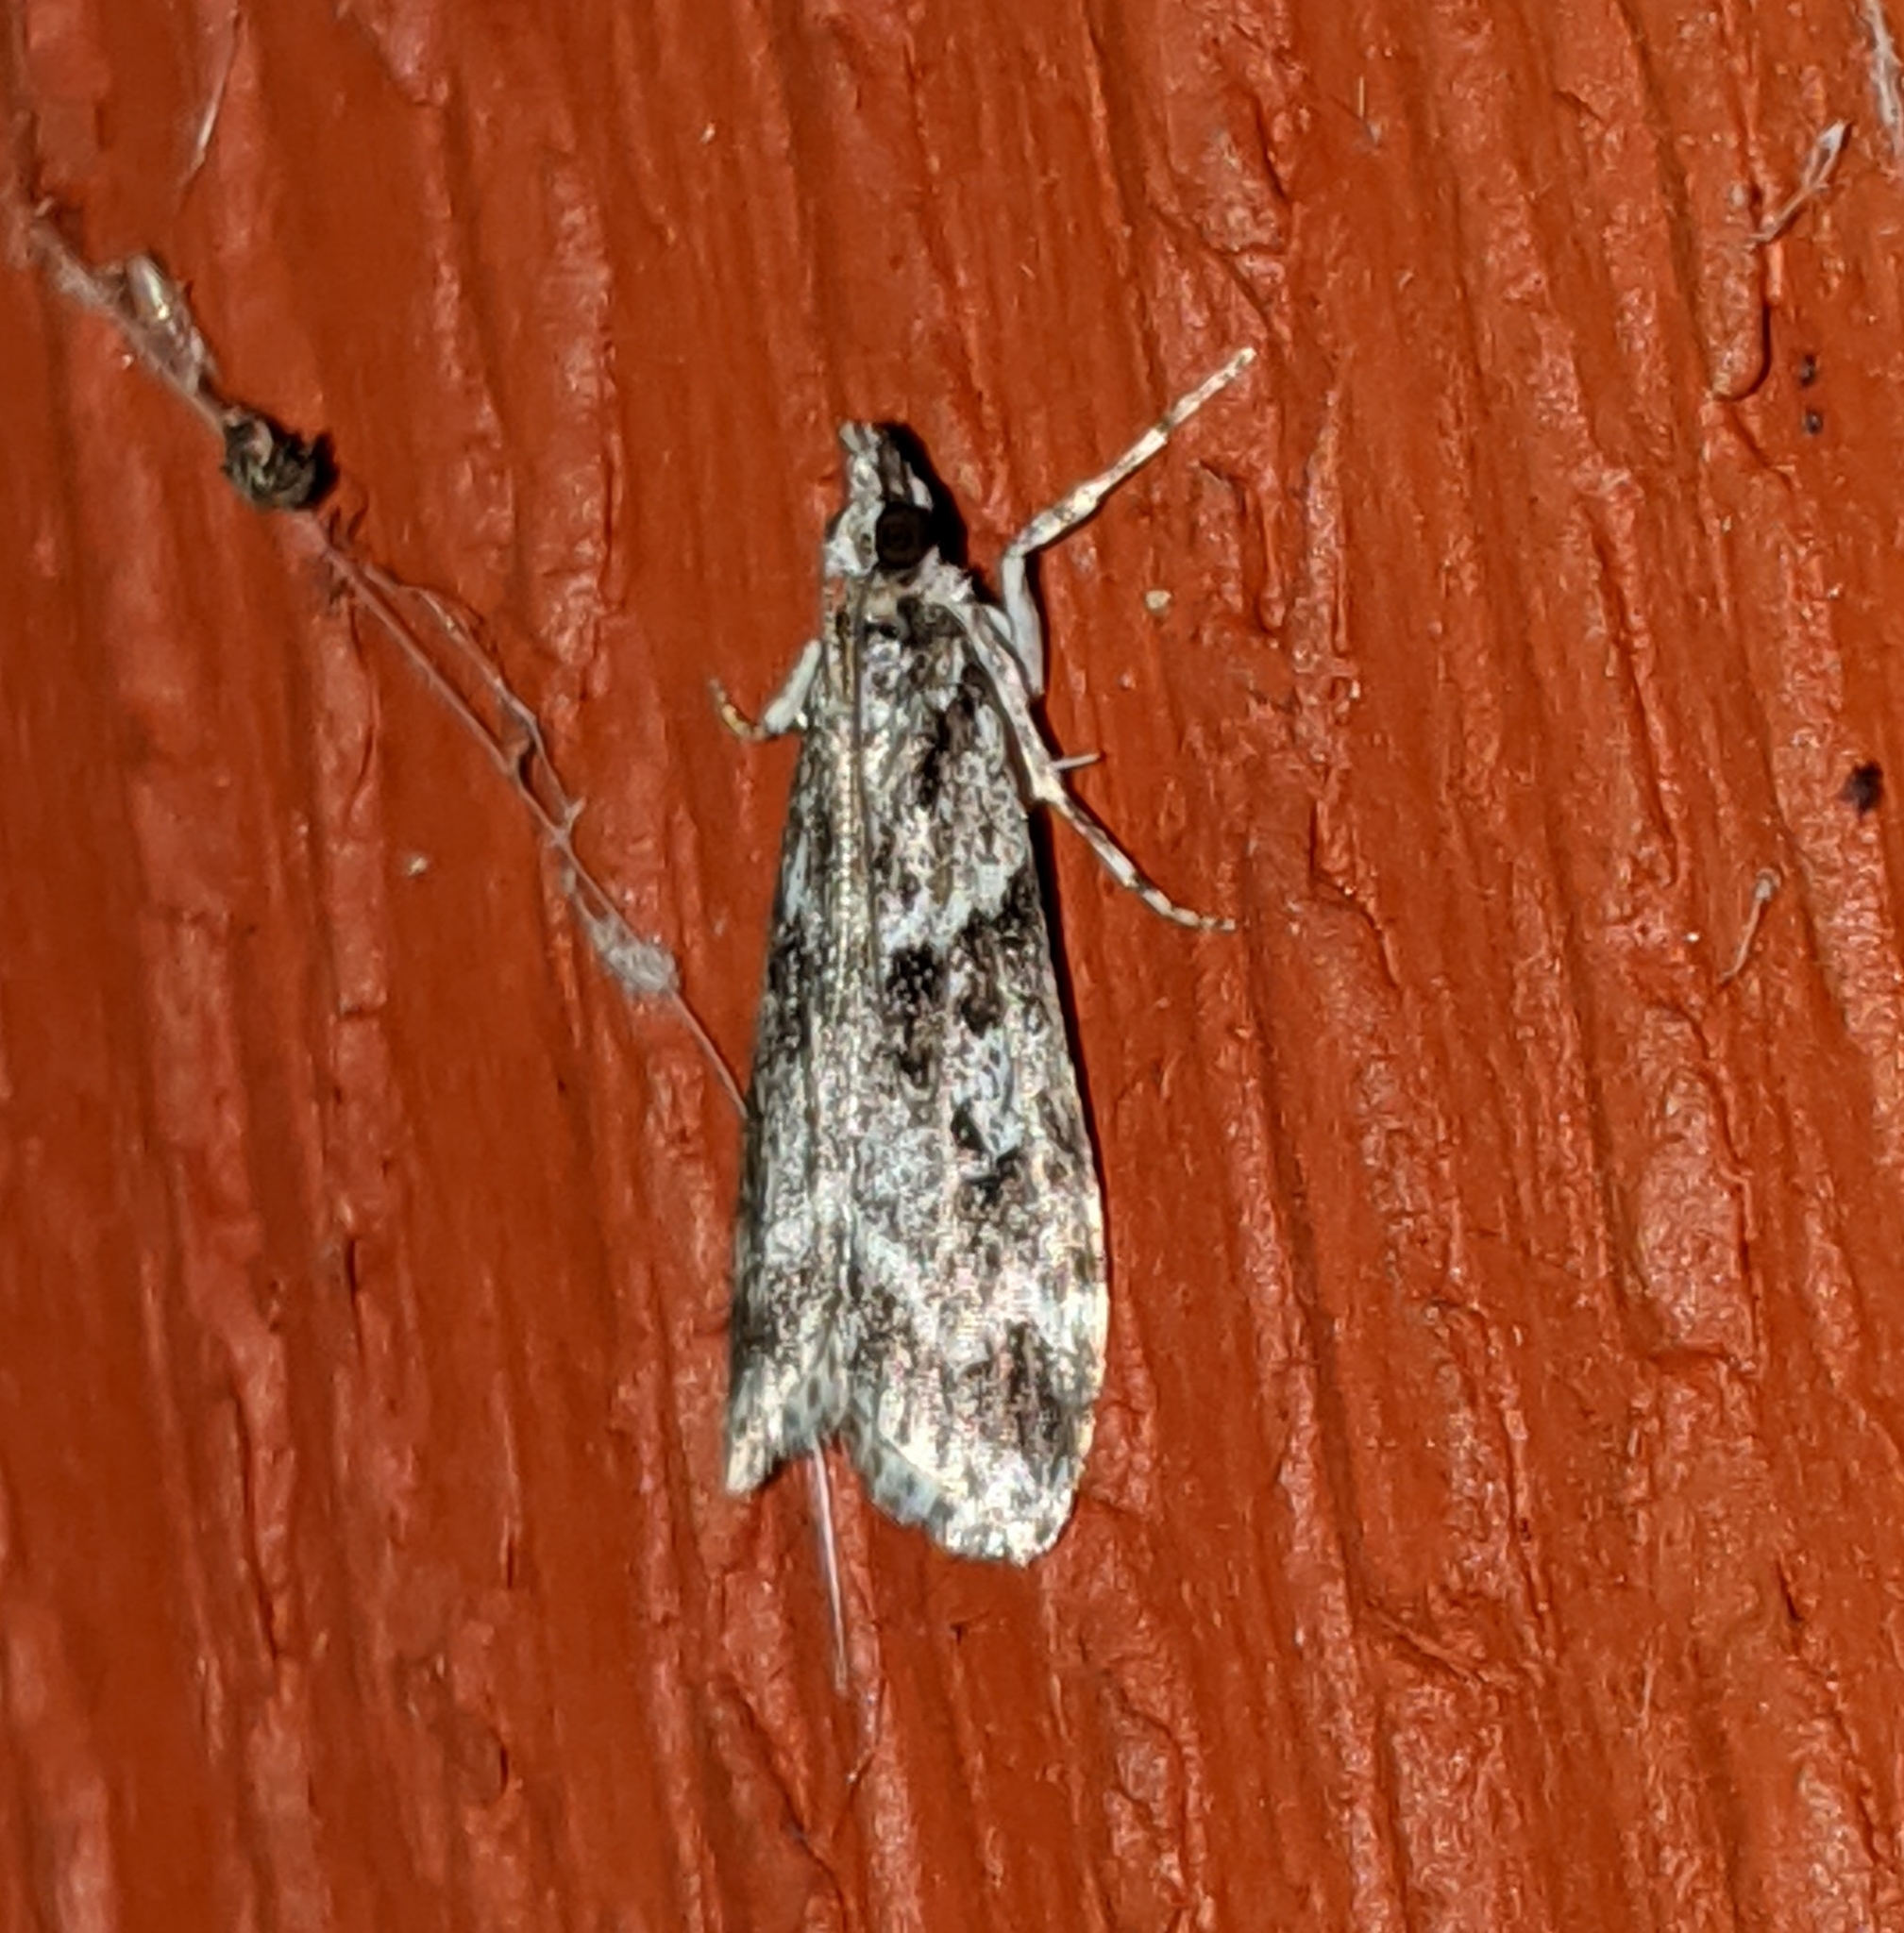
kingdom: Animalia
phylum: Arthropoda
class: Insecta
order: Lepidoptera
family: Crambidae
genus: Scoparia
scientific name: Scoparia biplagialis
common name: Double-striped scoparia moth
